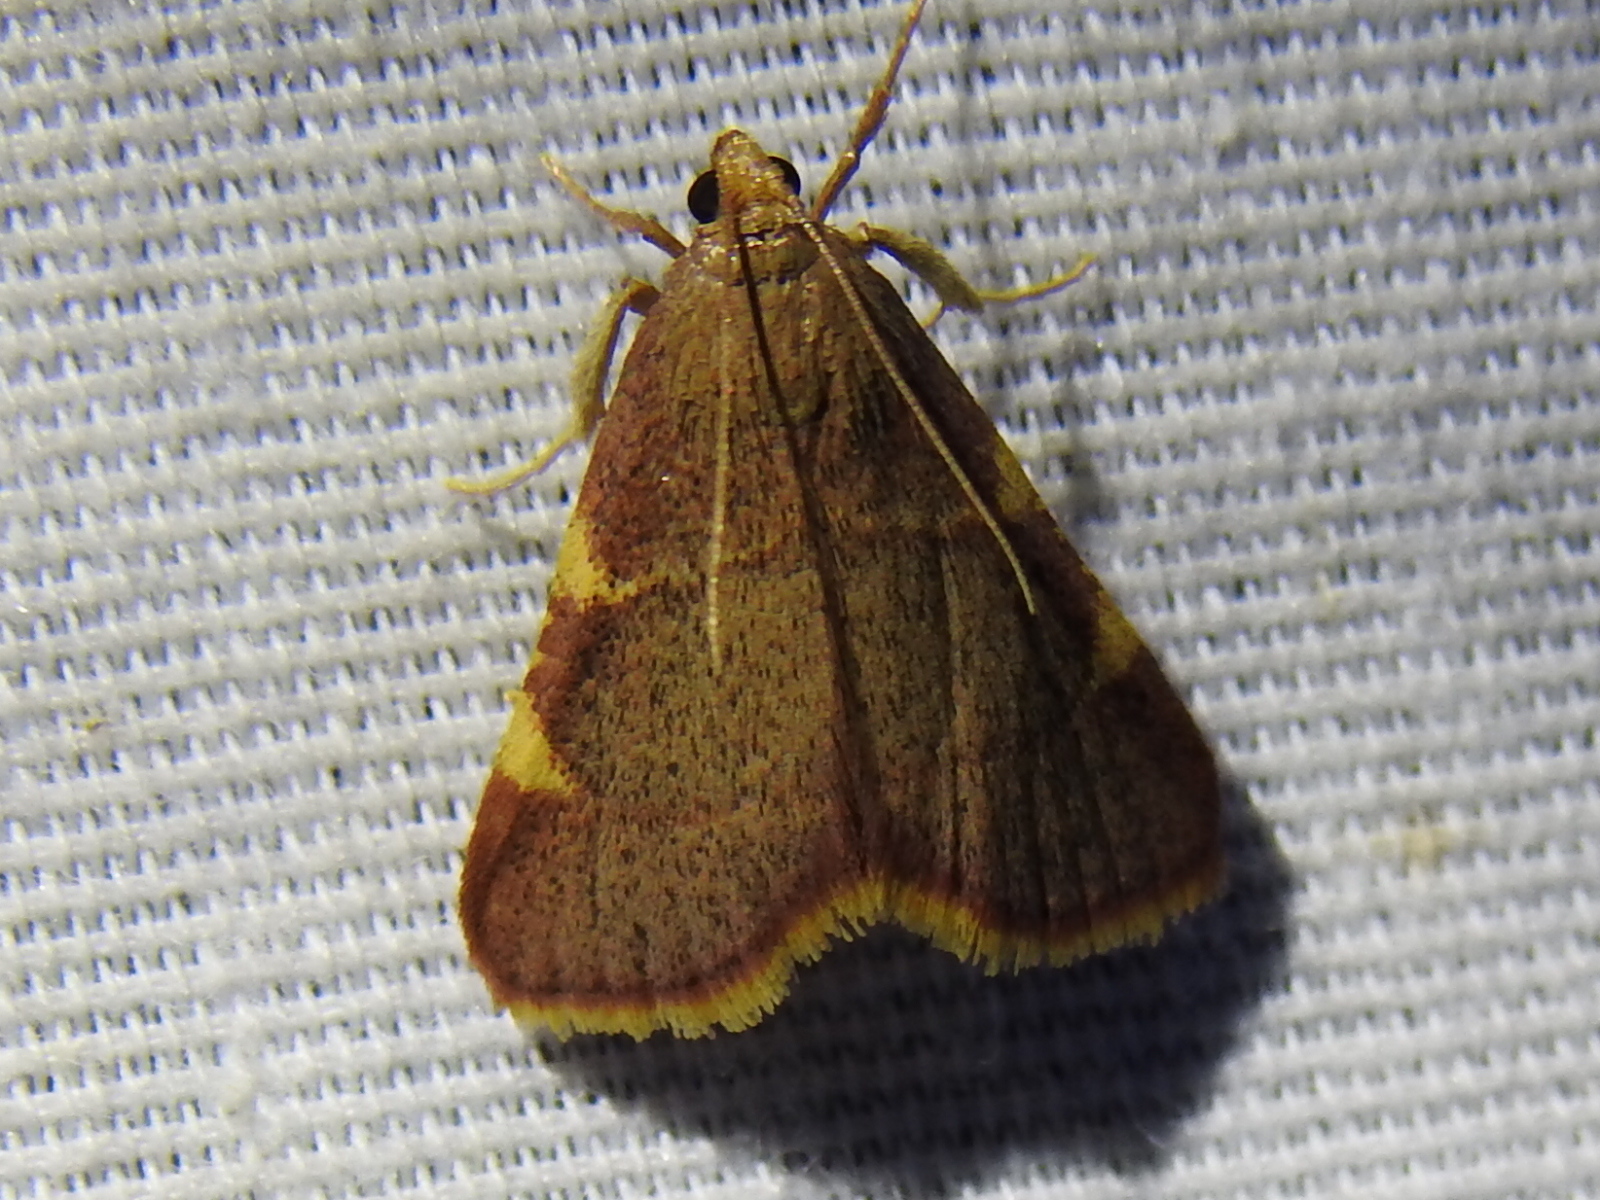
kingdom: Animalia
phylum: Arthropoda
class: Insecta
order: Lepidoptera
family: Pyralidae
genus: Hypsopygia
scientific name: Hypsopygia olinalis
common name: Yellow-fringed dolichomia moth
